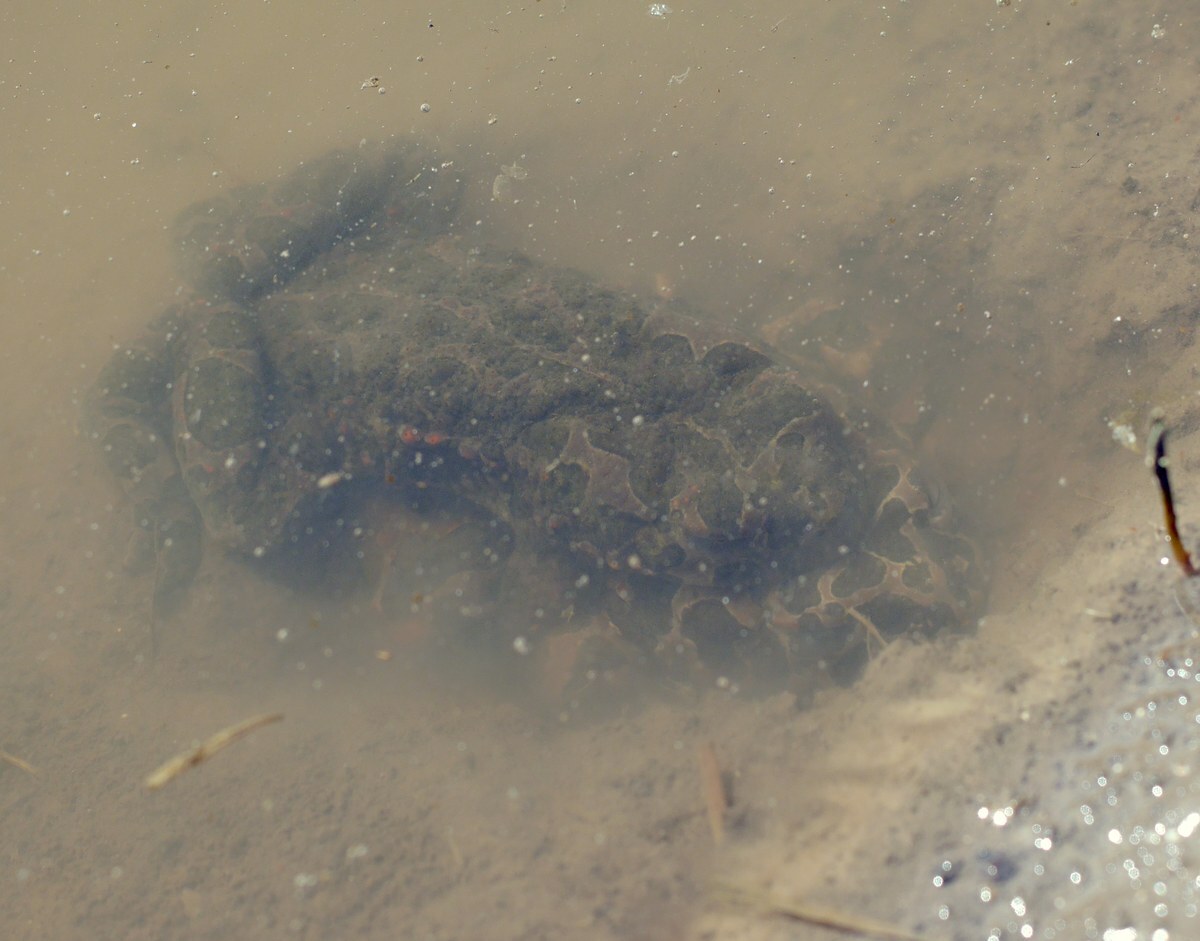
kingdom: Animalia
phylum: Chordata
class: Amphibia
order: Anura
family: Bufonidae
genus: Bufotes
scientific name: Bufotes viridis
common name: European green toad
